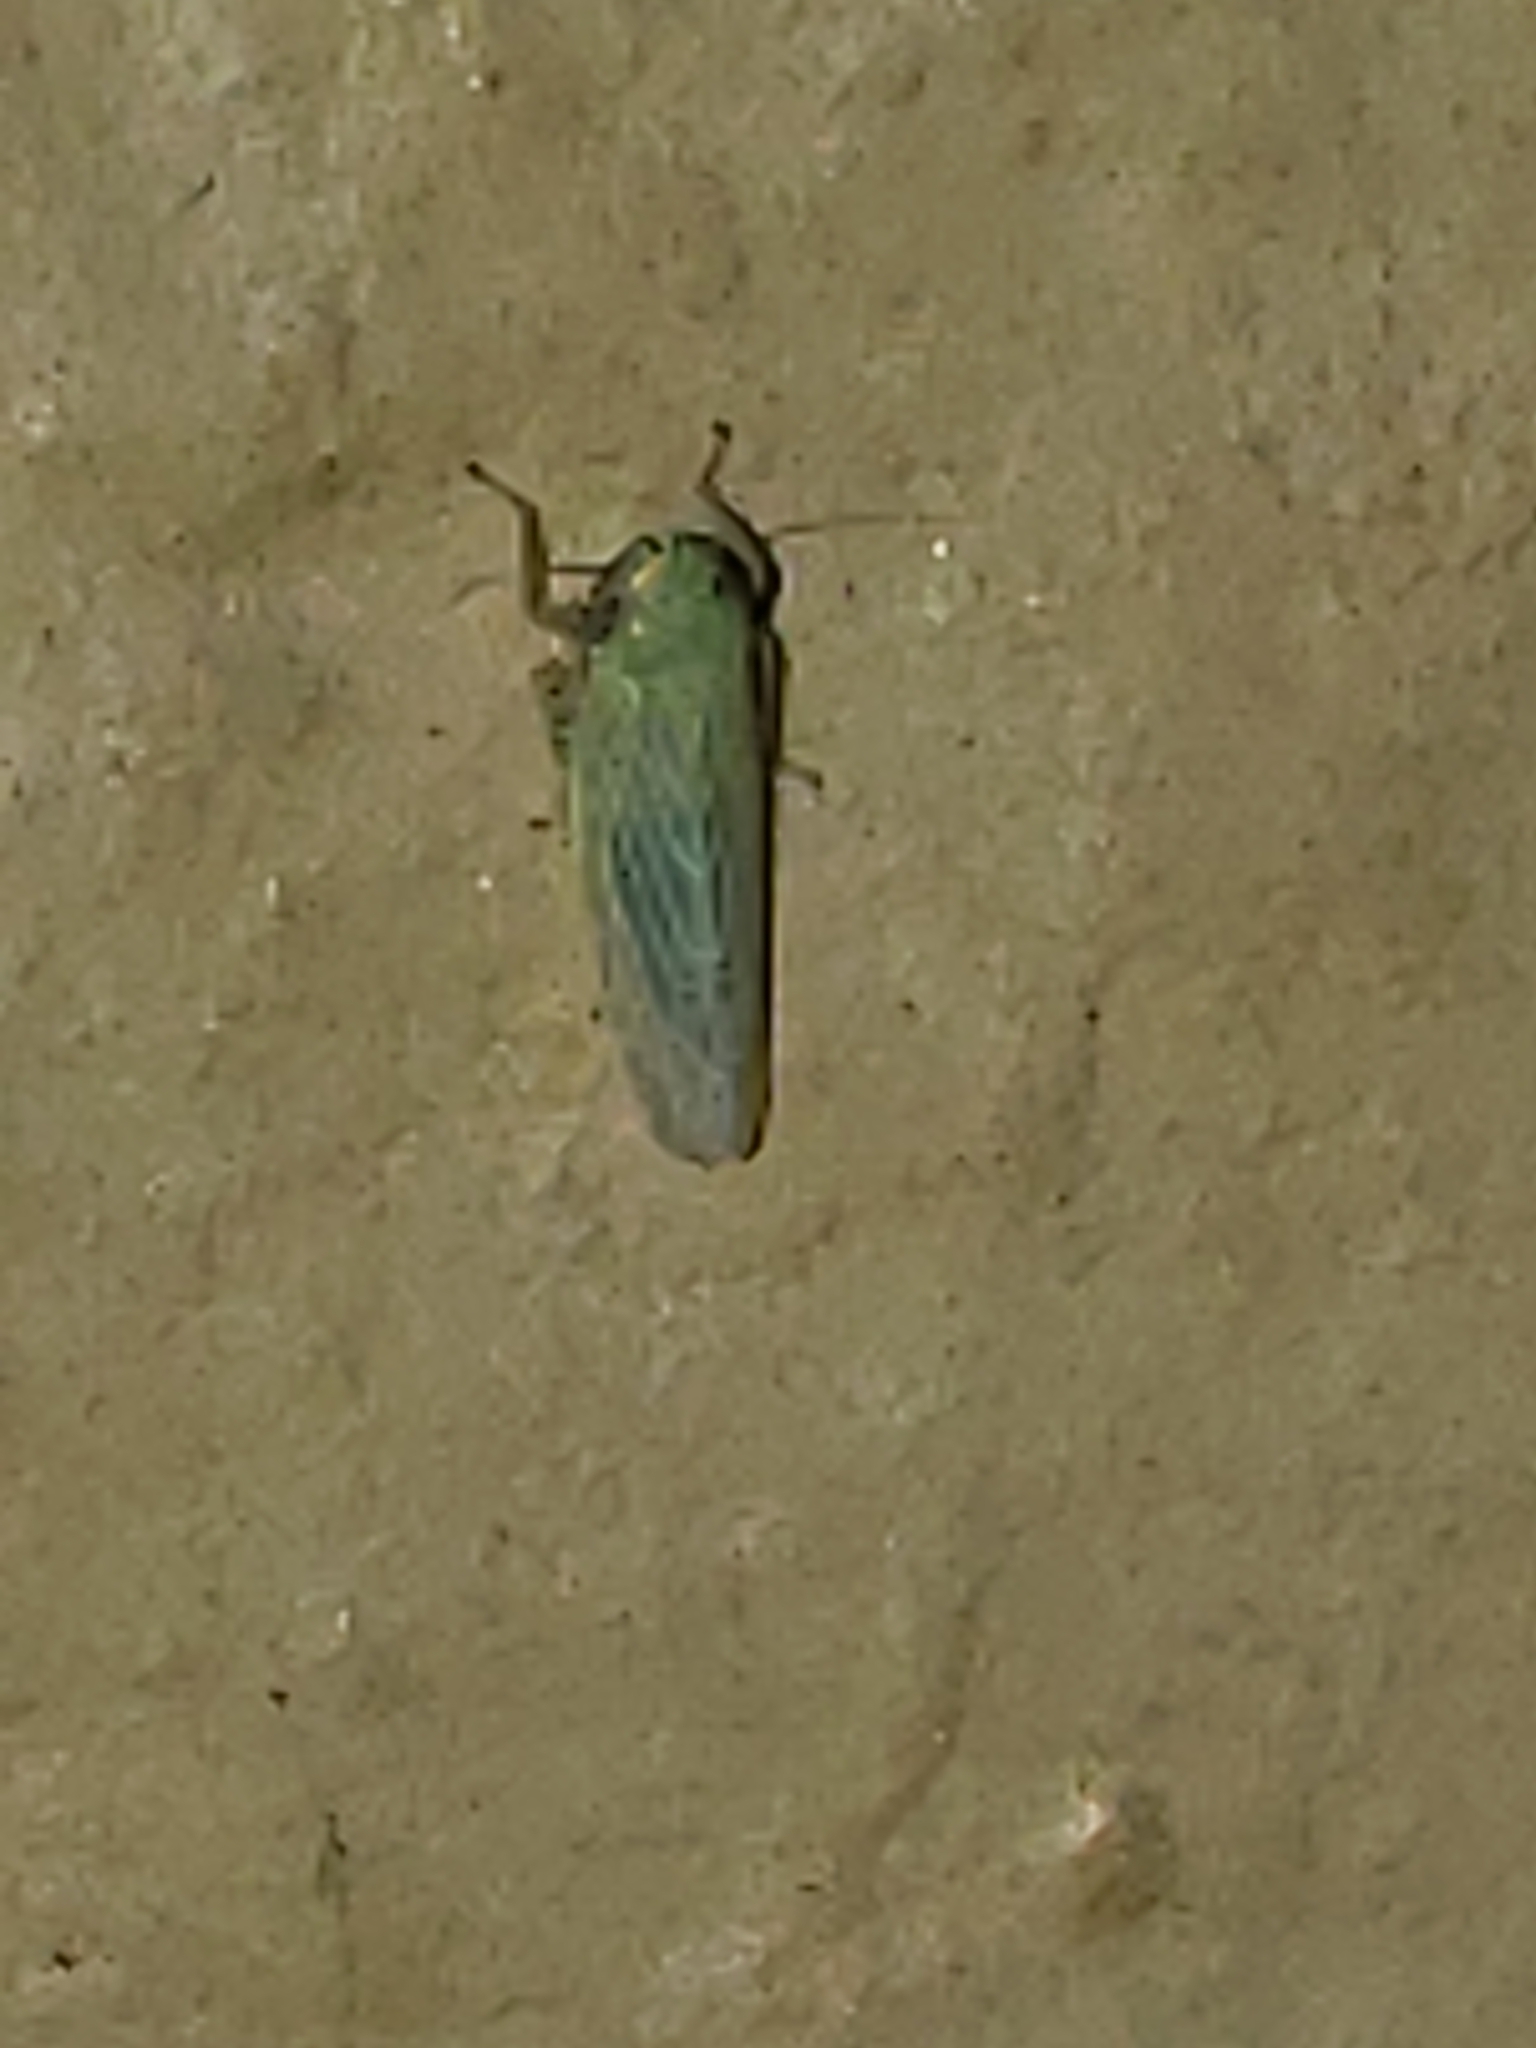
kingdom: Animalia
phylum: Arthropoda
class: Insecta
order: Hemiptera
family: Cicadellidae
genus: Graminella
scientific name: Graminella nigrifrons
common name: Blackfaced leafhopper
